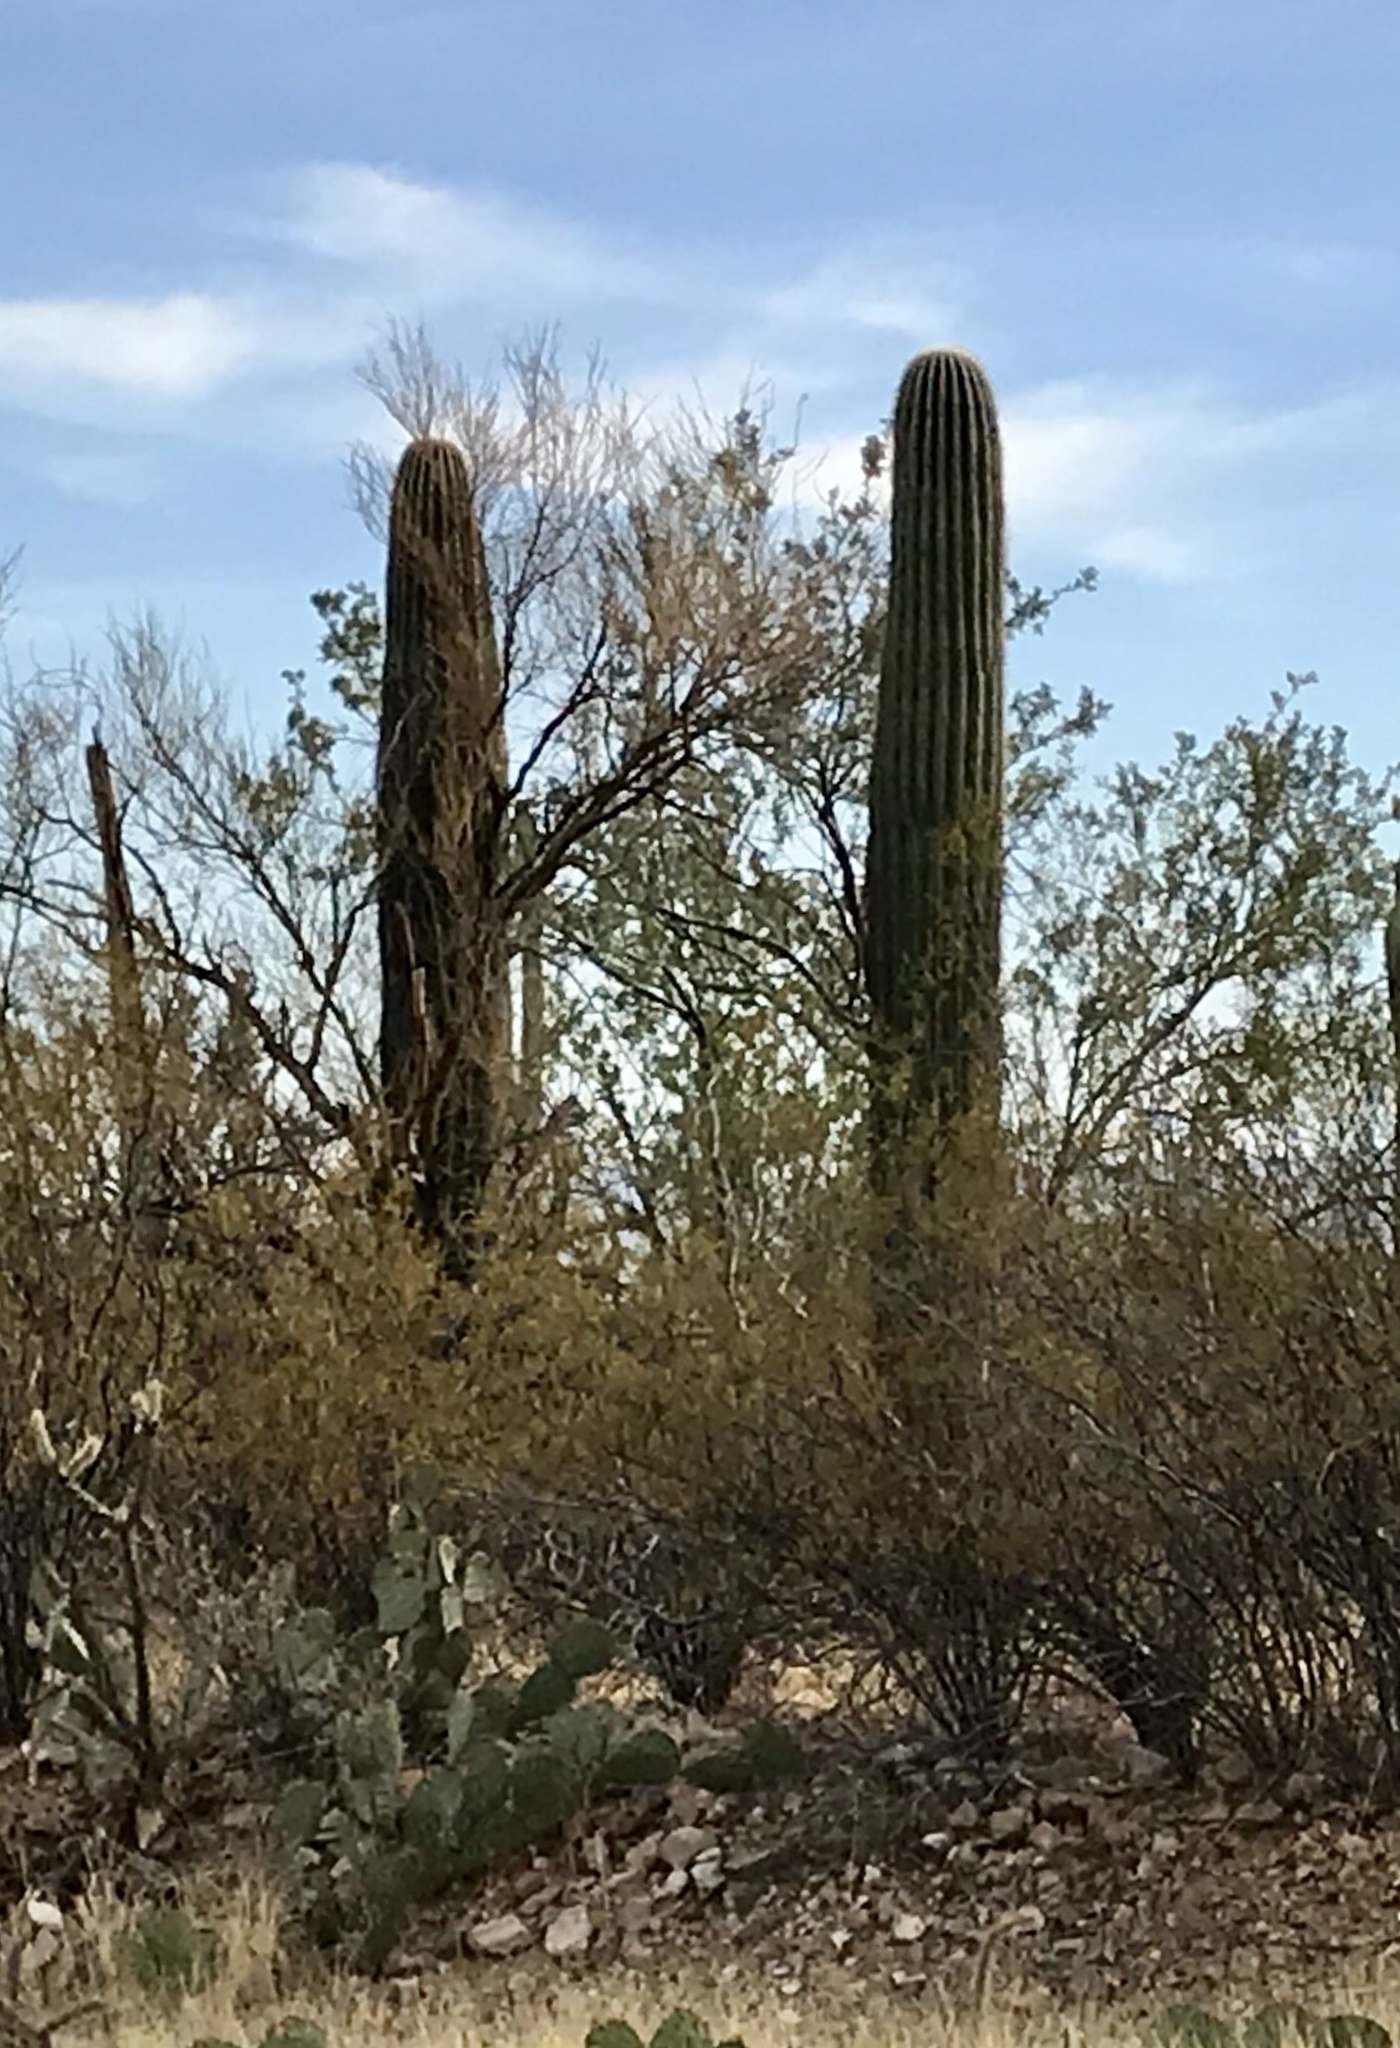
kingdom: Plantae
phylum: Tracheophyta
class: Magnoliopsida
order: Caryophyllales
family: Cactaceae
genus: Carnegiea
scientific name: Carnegiea gigantea
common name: Saguaro
